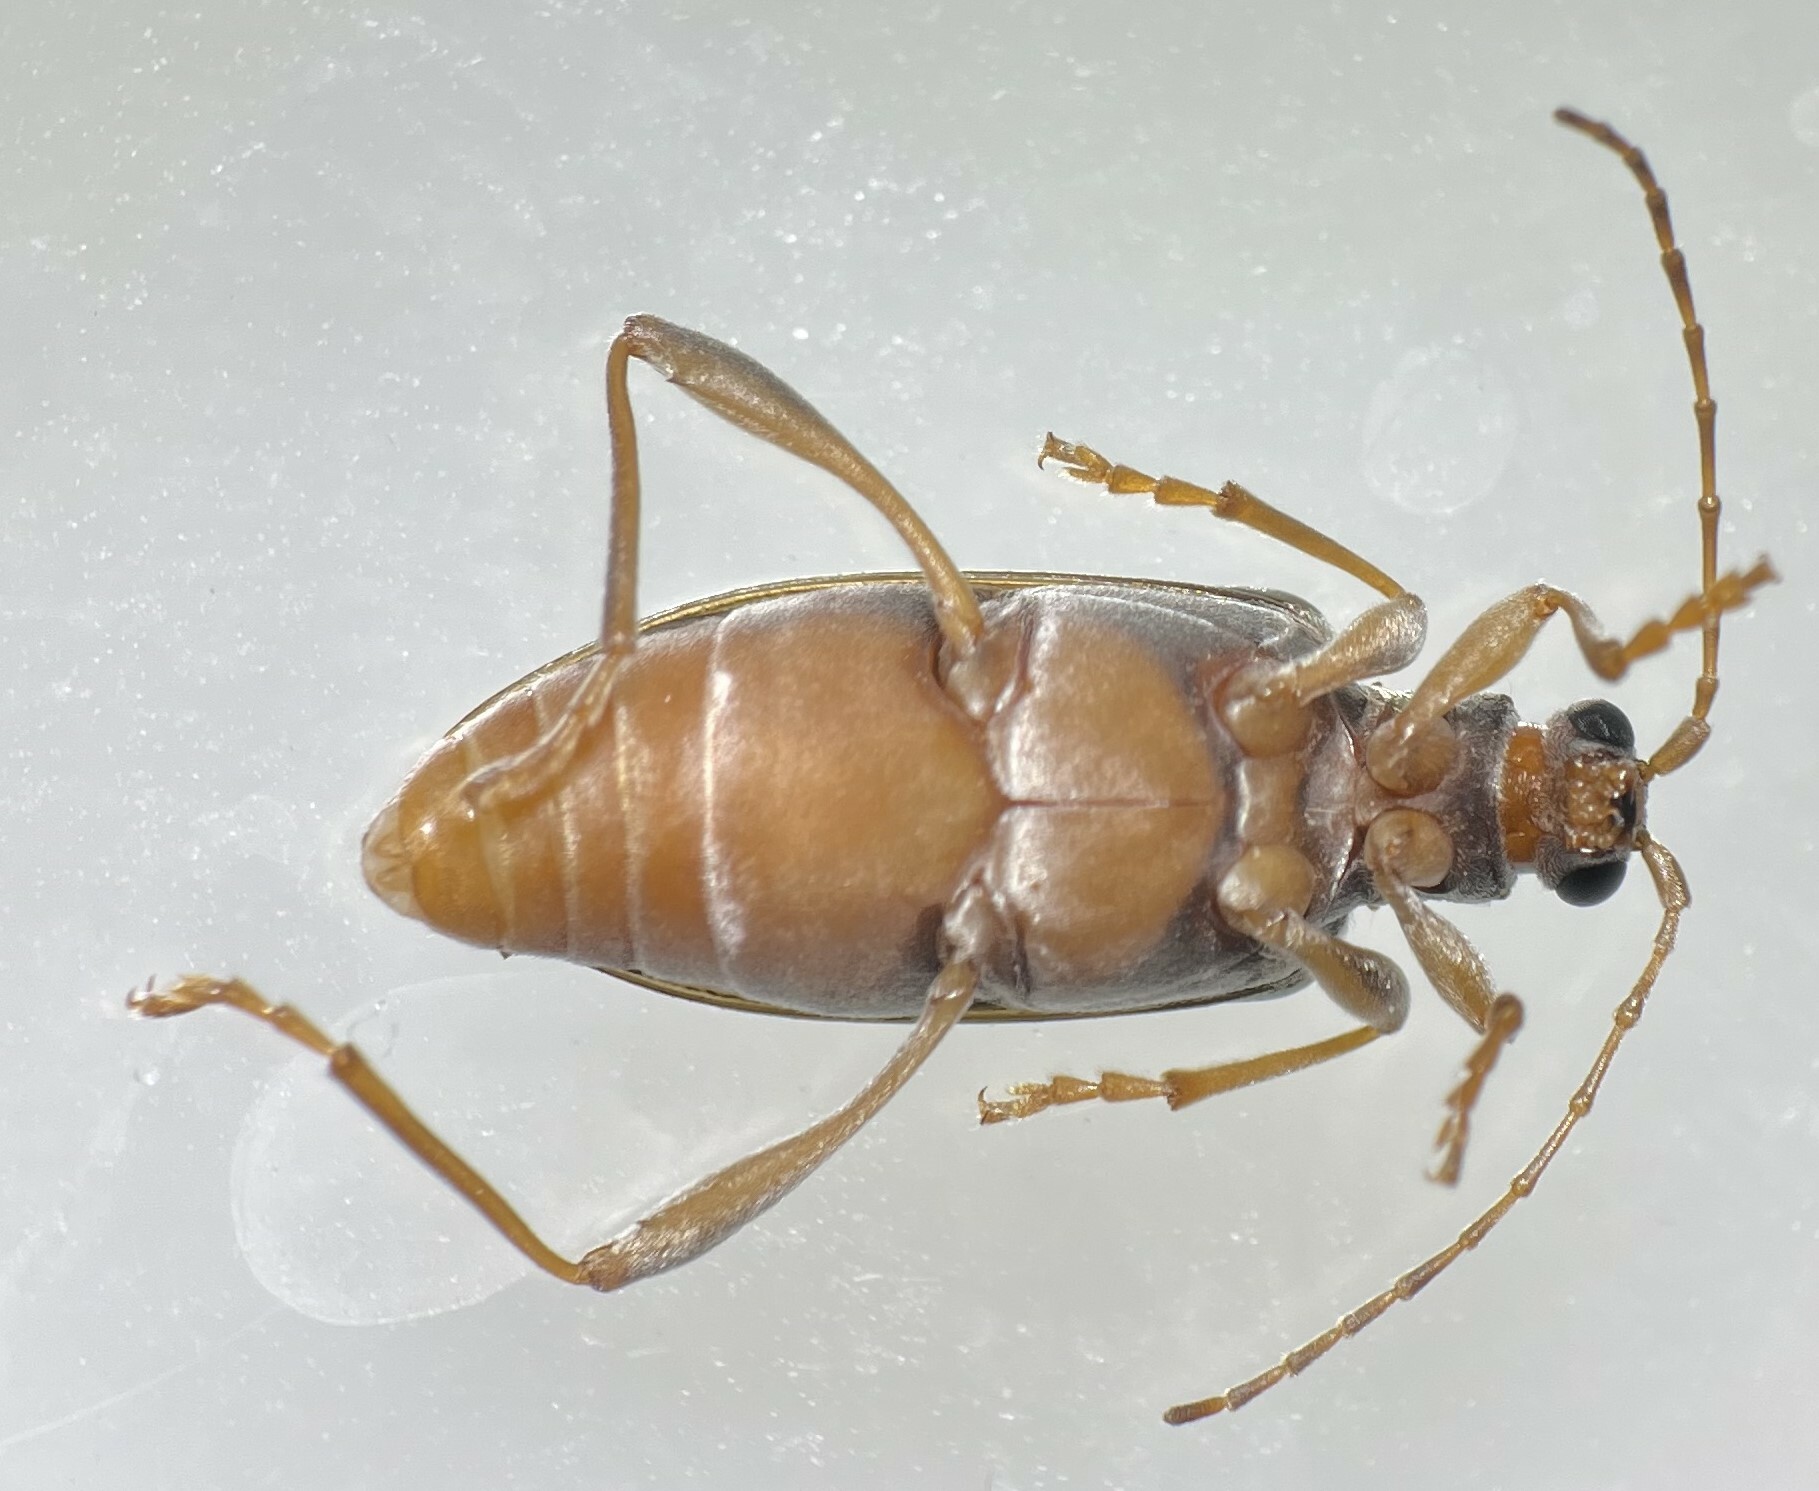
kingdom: Animalia
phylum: Arthropoda
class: Insecta
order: Coleoptera
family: Chrysomelidae
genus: Donacia
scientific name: Donacia hypoleuca
